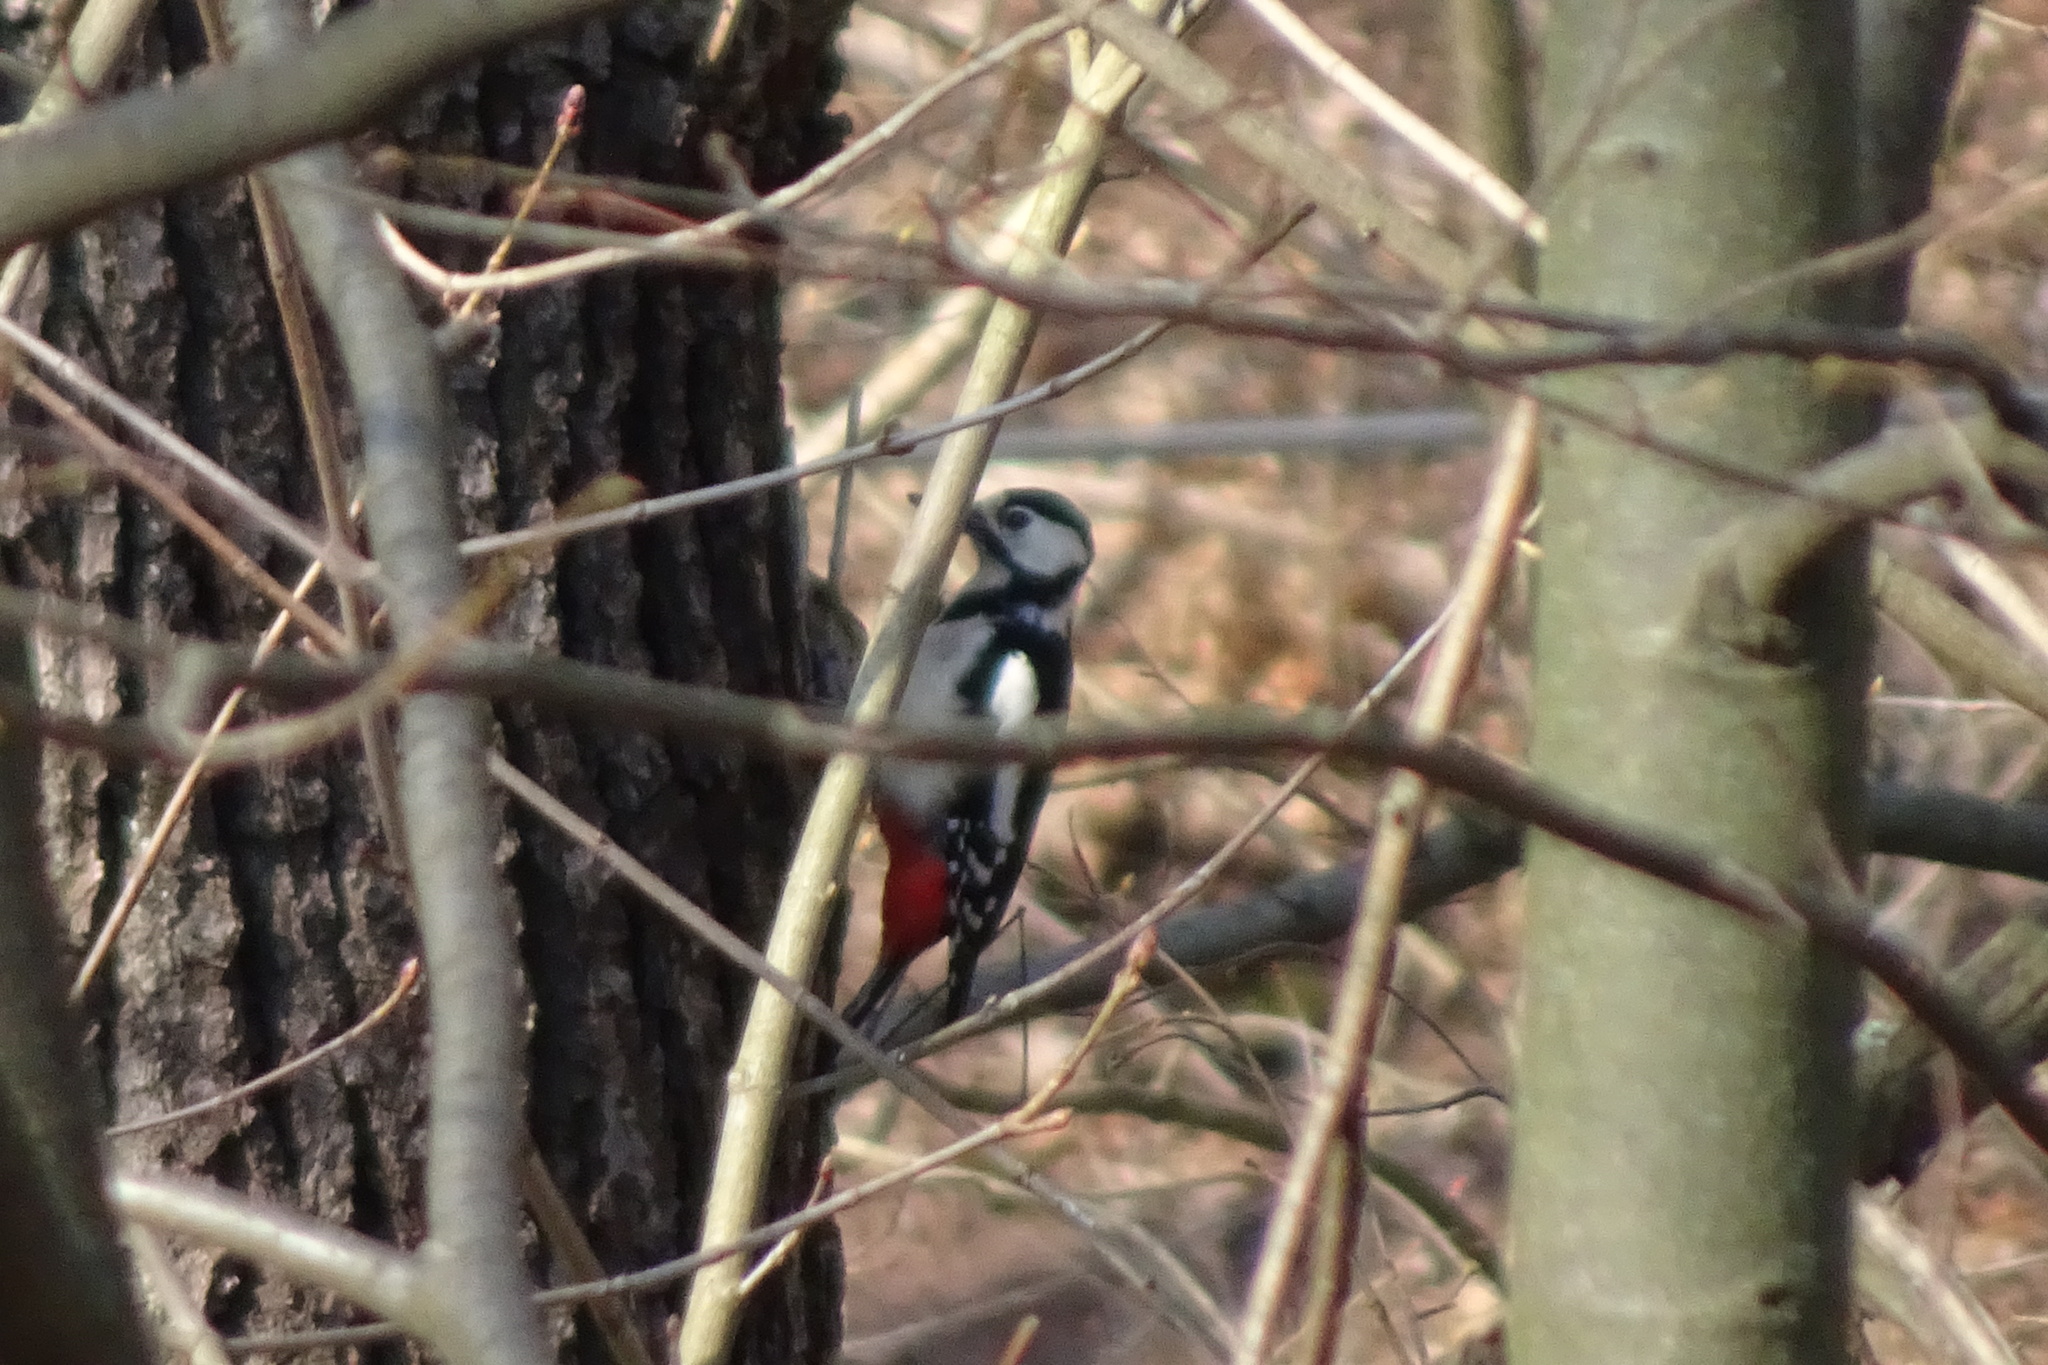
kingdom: Animalia
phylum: Chordata
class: Aves
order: Piciformes
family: Picidae
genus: Dendrocopos
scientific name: Dendrocopos major
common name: Great spotted woodpecker
